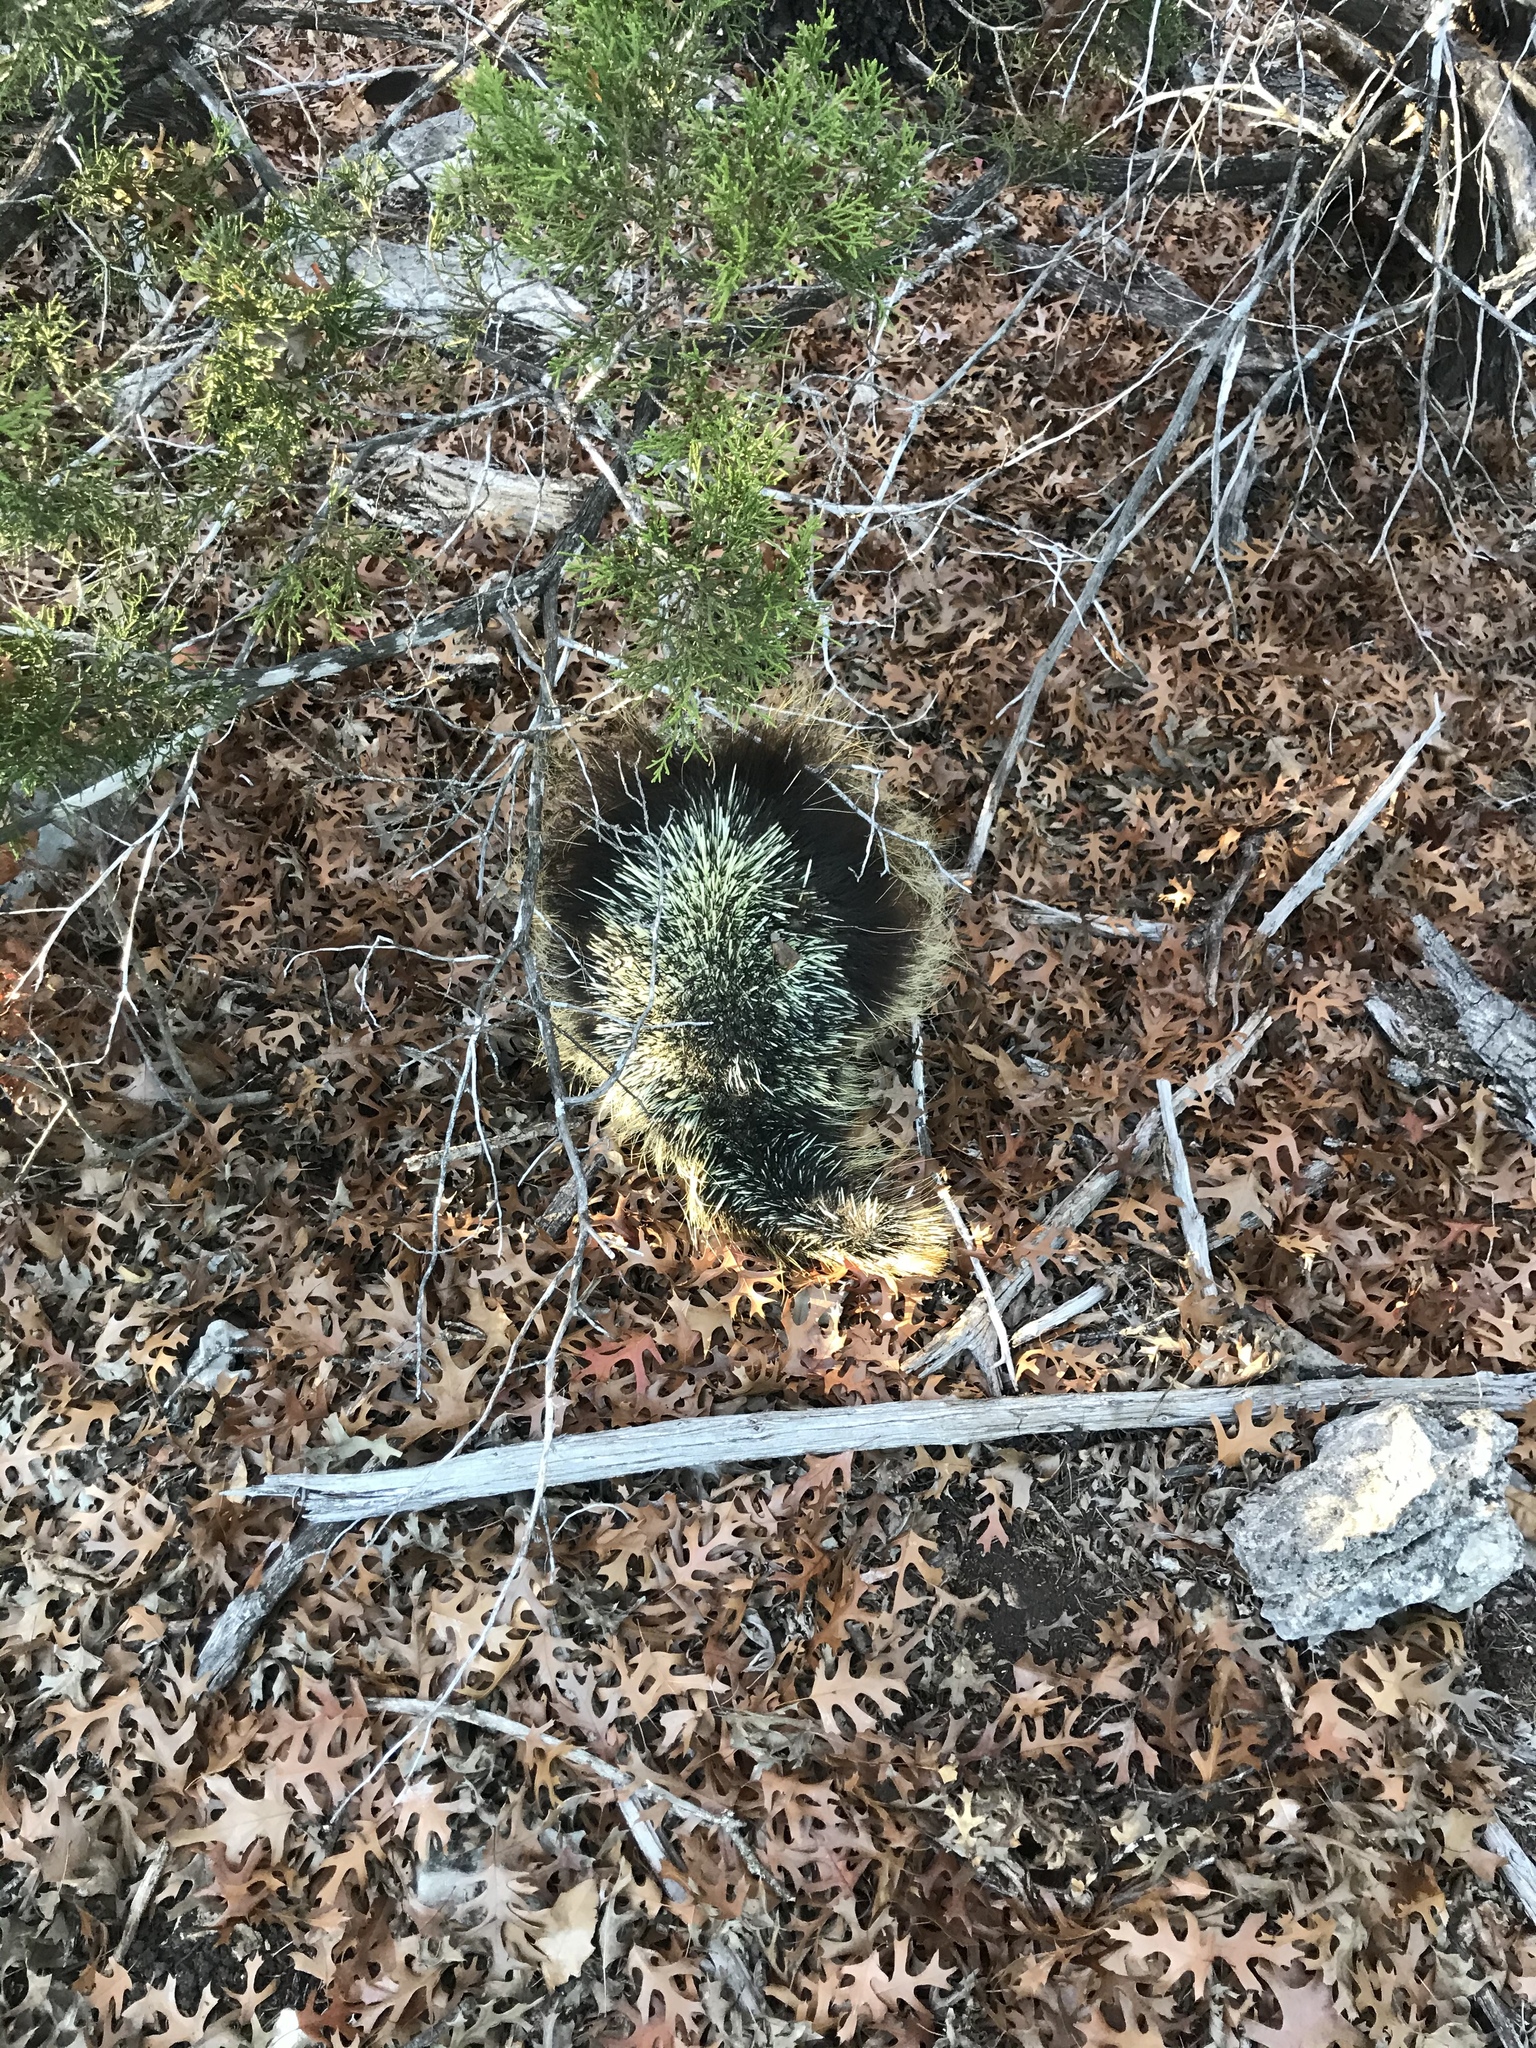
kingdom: Animalia
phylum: Chordata
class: Mammalia
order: Rodentia
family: Erethizontidae
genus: Erethizon
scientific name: Erethizon dorsatus
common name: North american porcupine
